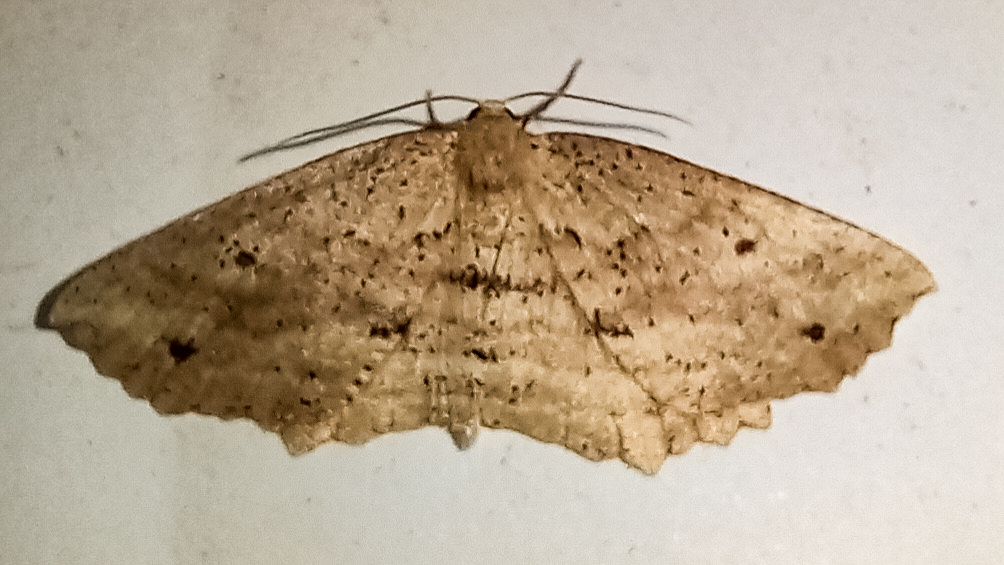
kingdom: Animalia
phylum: Arthropoda
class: Insecta
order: Lepidoptera
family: Geometridae
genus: Xyridacma
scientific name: Xyridacma veronicae
